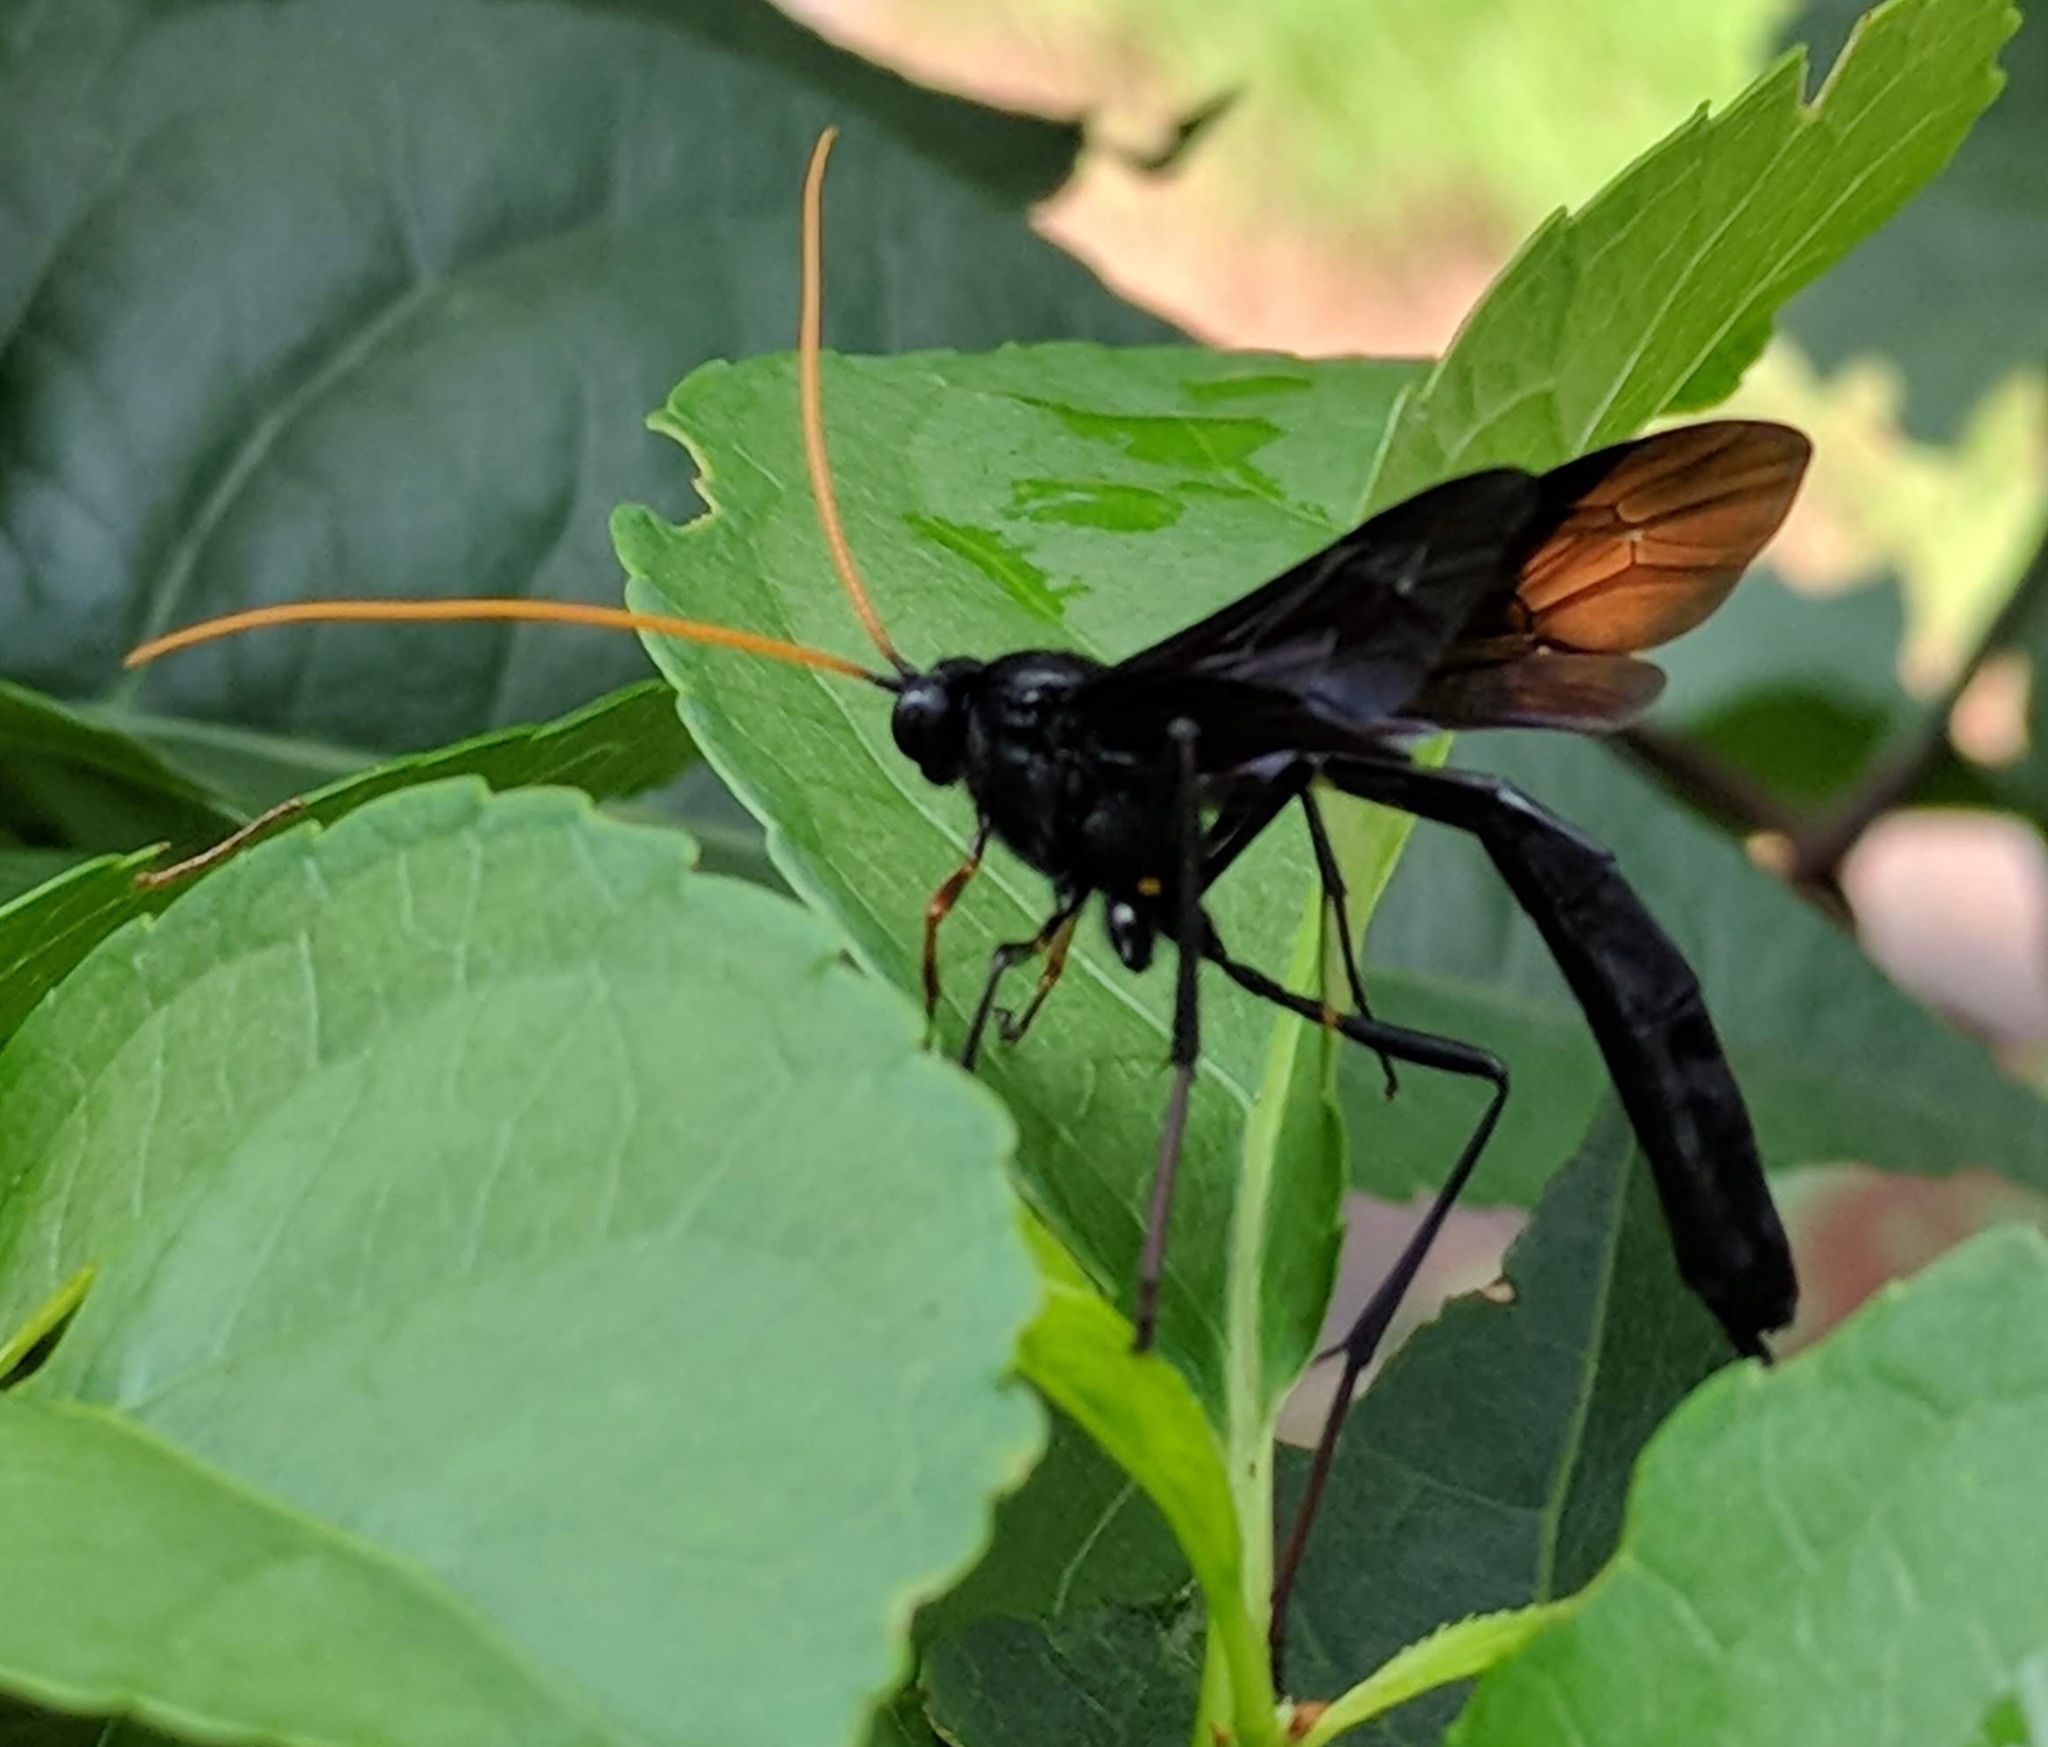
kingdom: Animalia
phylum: Arthropoda
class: Insecta
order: Hymenoptera
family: Ichneumonidae
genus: Heteropelma
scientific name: Heteropelma datanae
